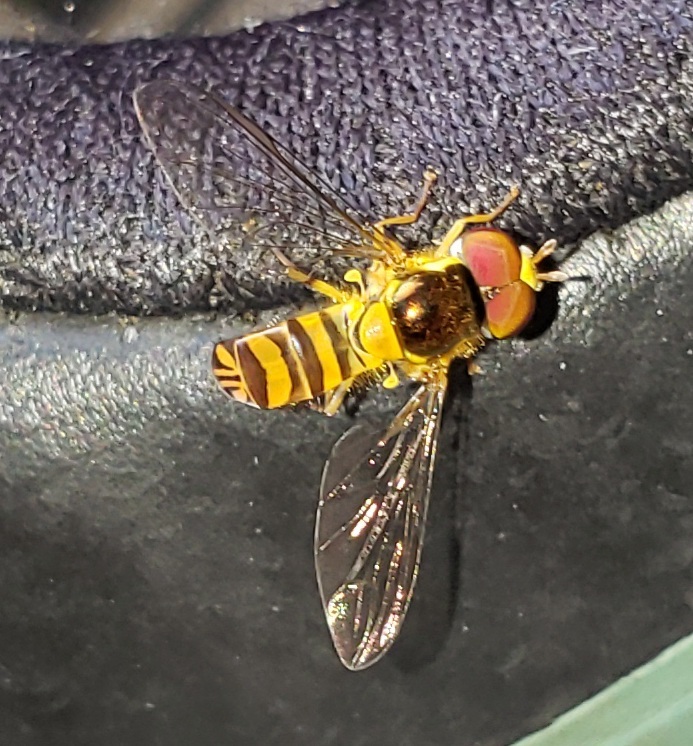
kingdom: Animalia
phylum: Arthropoda
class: Insecta
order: Diptera
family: Syrphidae
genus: Allograpta
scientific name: Allograpta obliqua
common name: Common oblique syrphid
